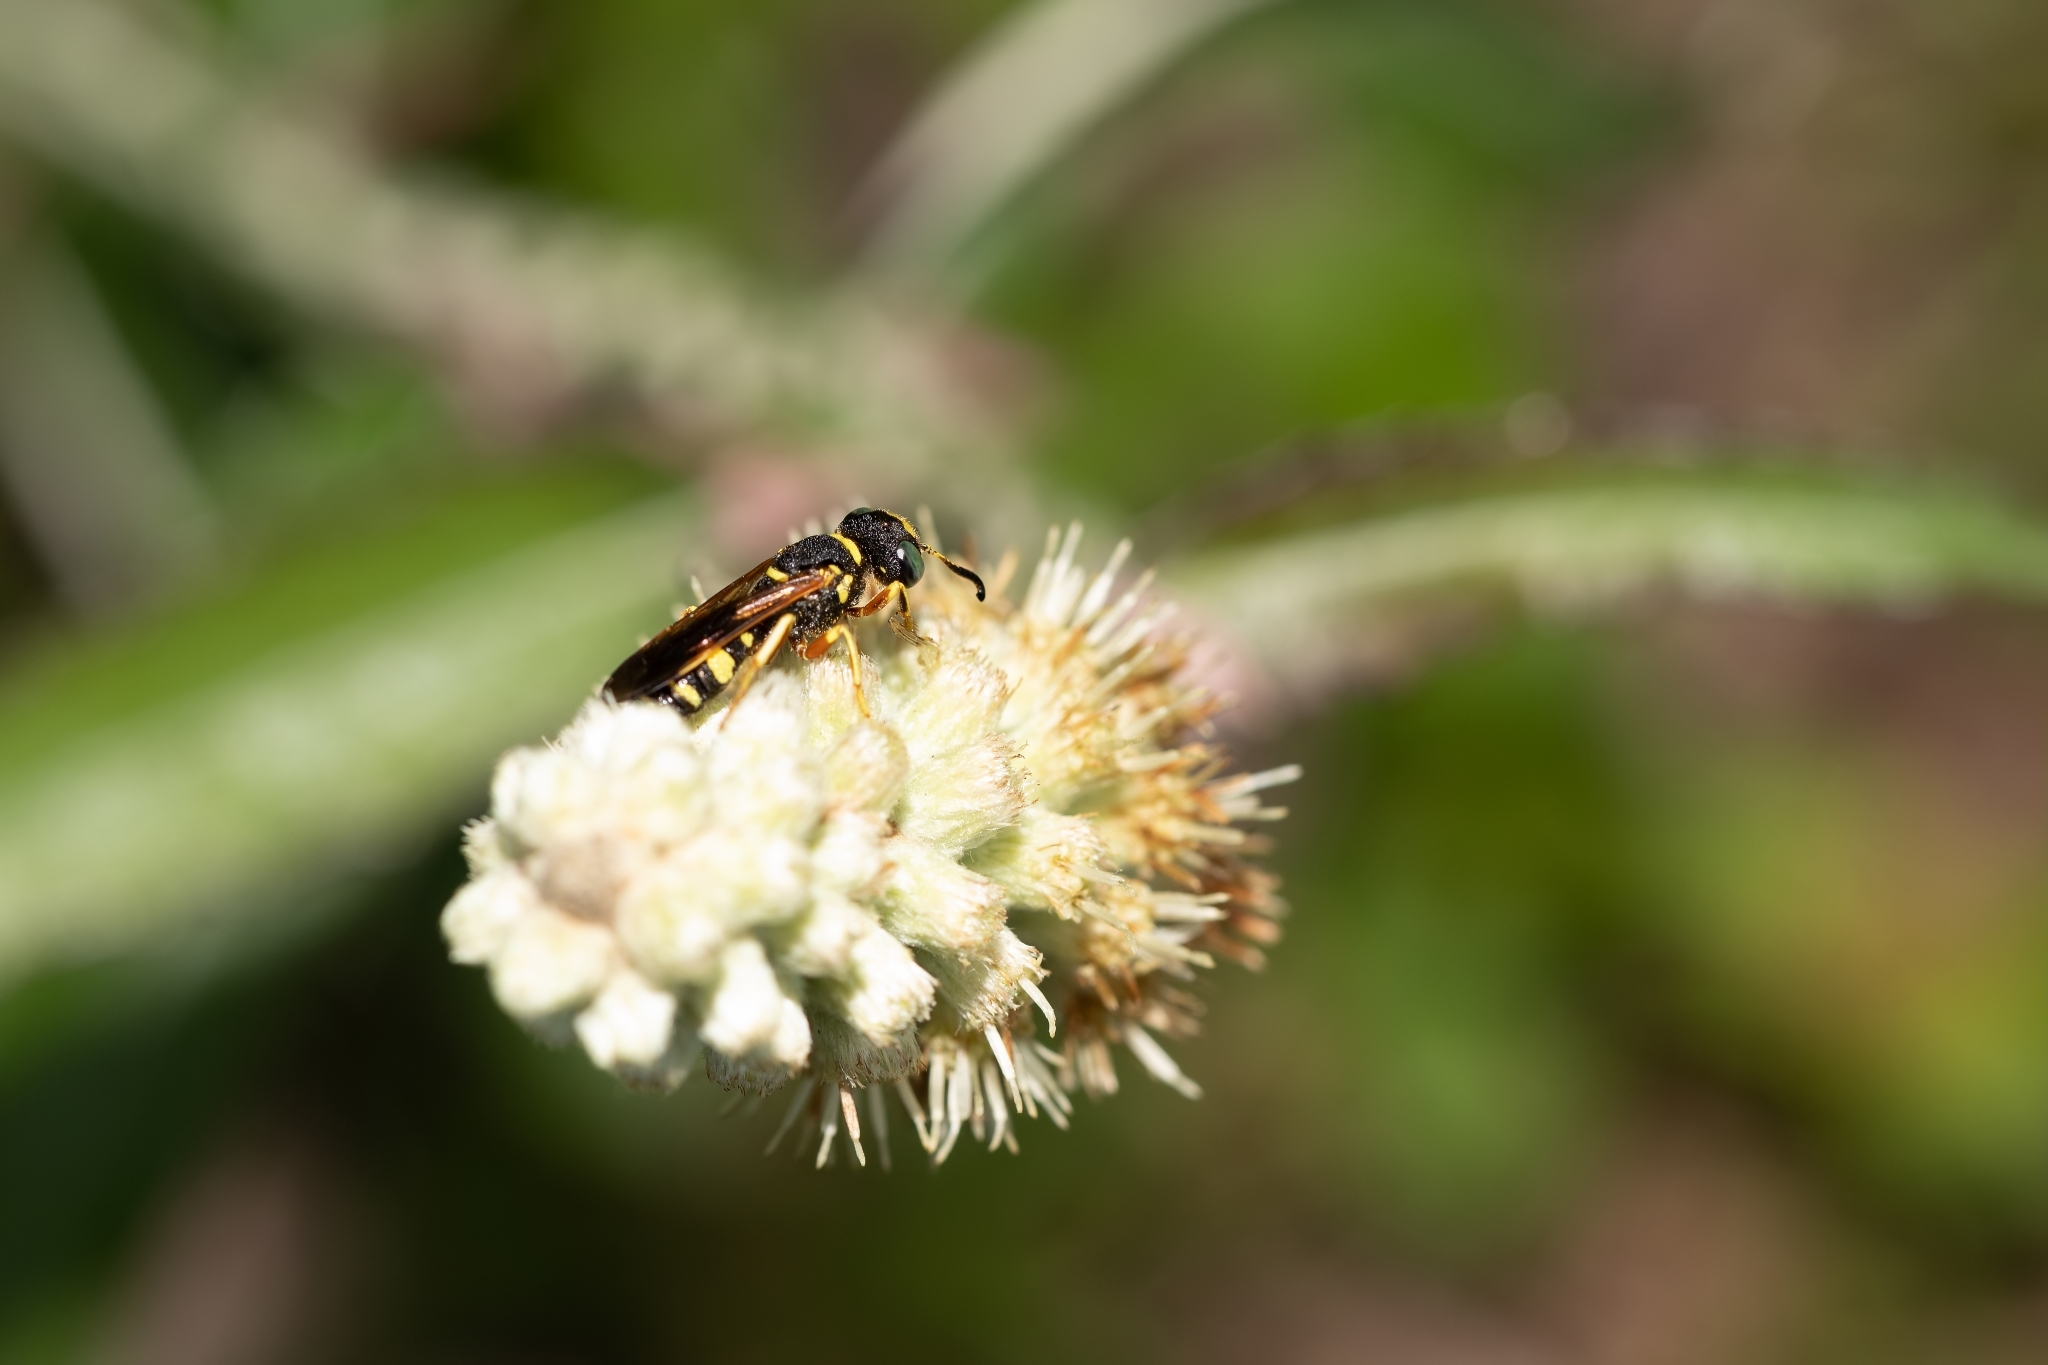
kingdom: Animalia
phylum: Arthropoda
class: Insecta
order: Hymenoptera
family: Crabronidae
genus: Philanthus
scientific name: Philanthus ventilabris
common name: Bee-killer wasp
